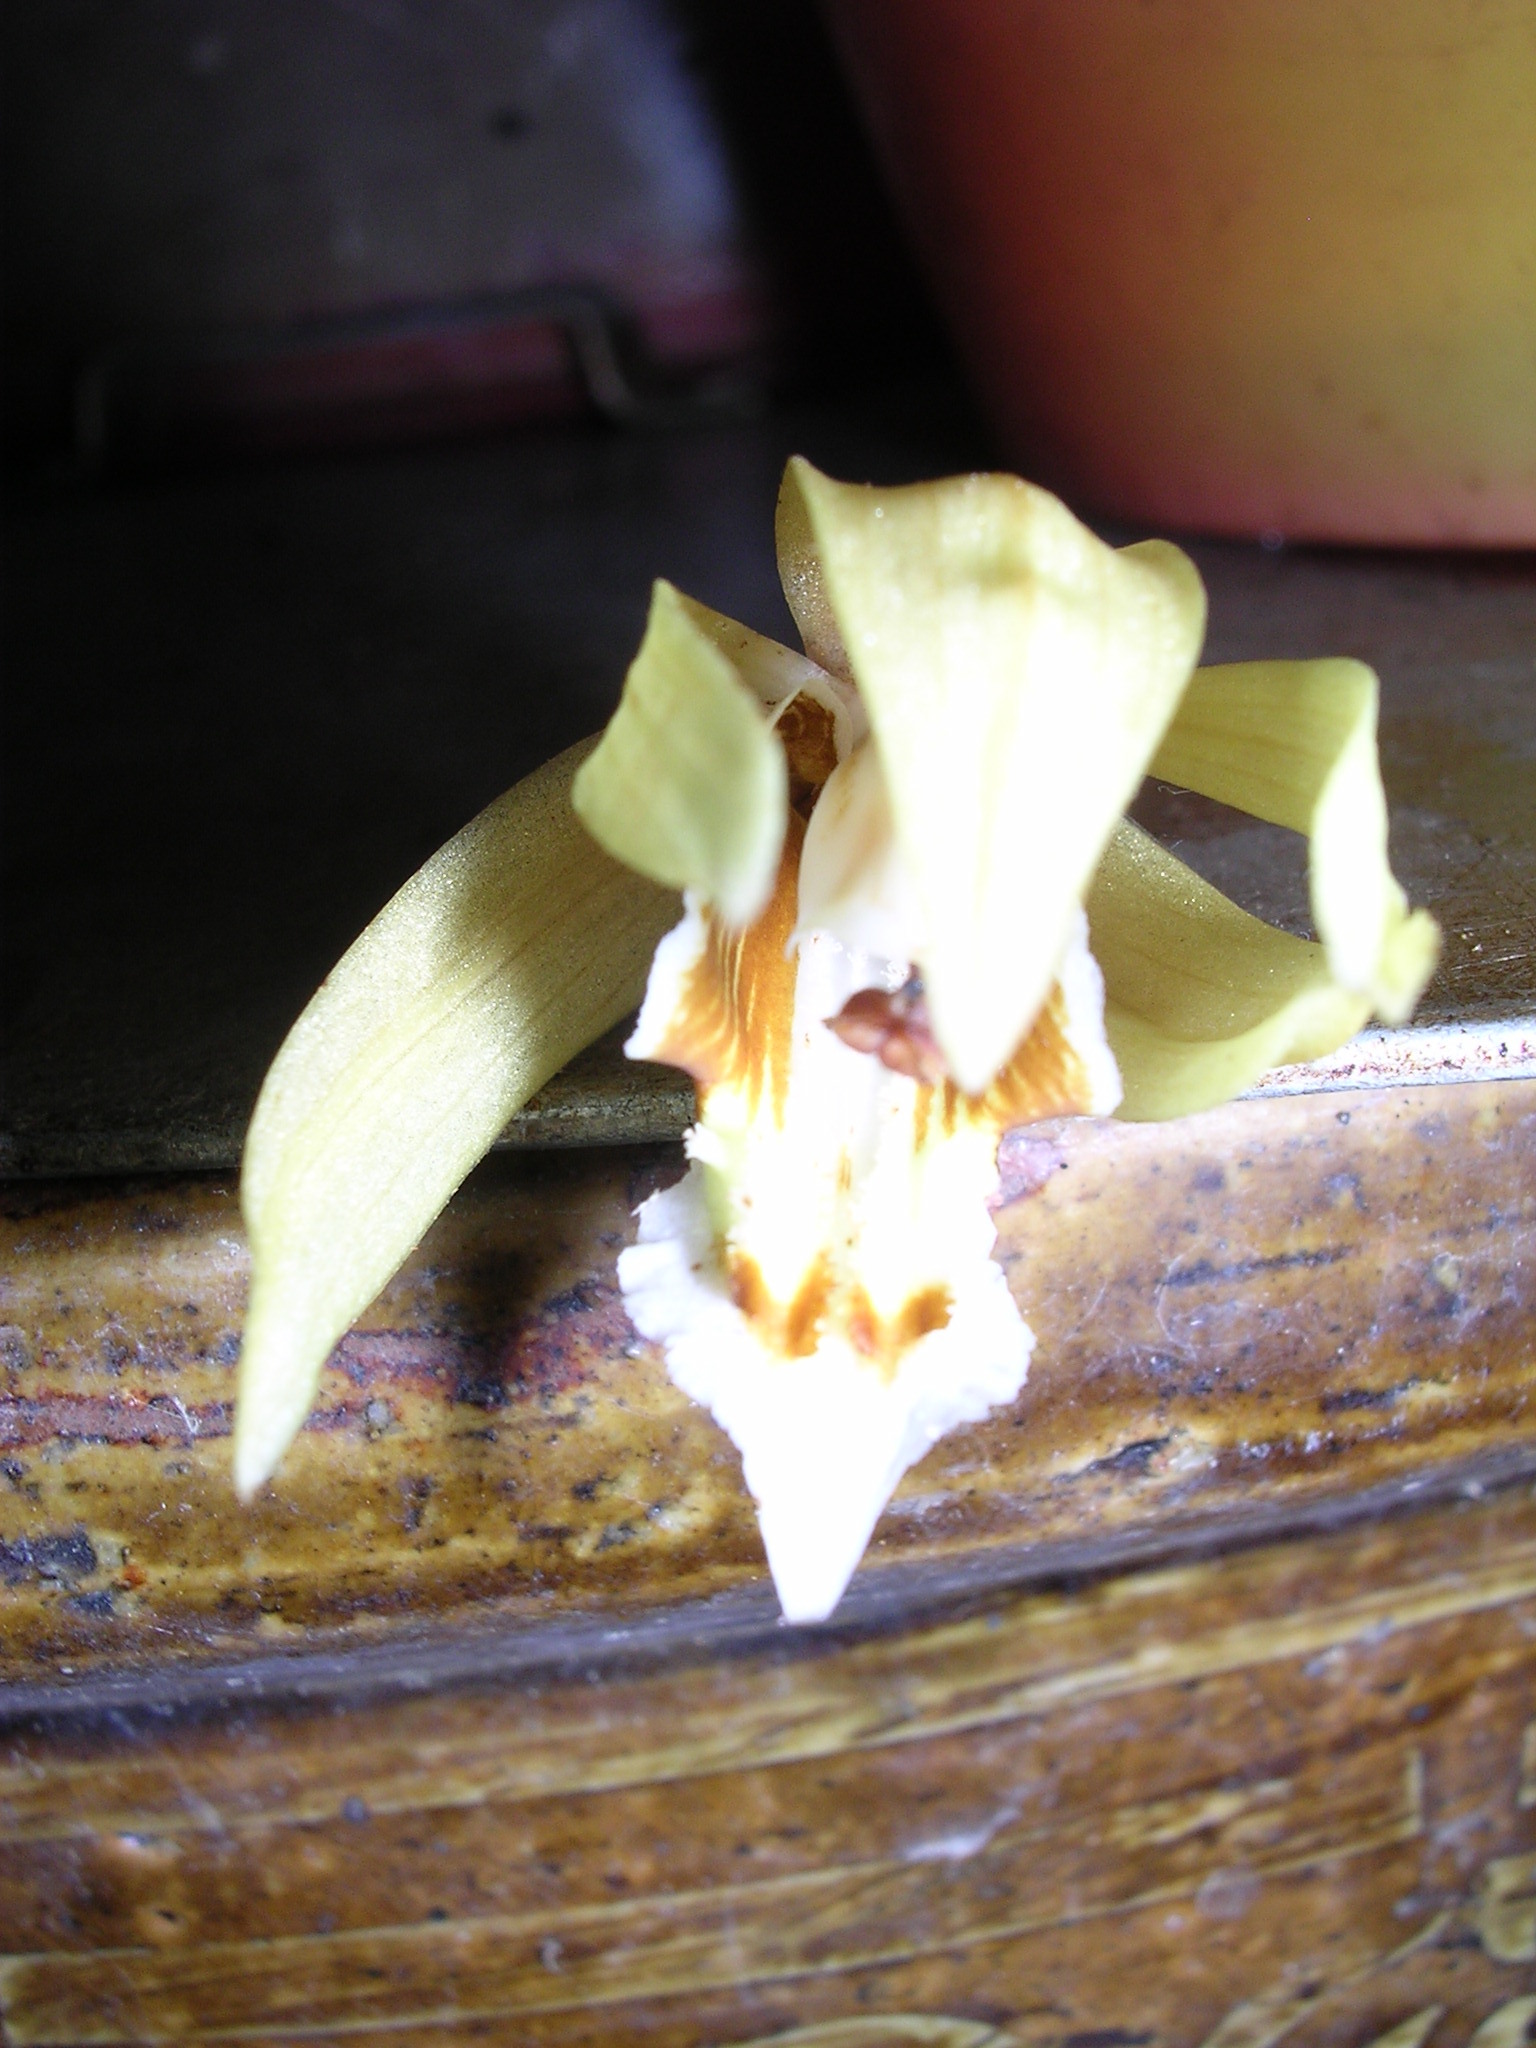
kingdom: Plantae
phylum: Tracheophyta
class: Liliopsida
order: Asparagales
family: Orchidaceae
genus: Coelogyne
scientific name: Coelogyne rochussenii
